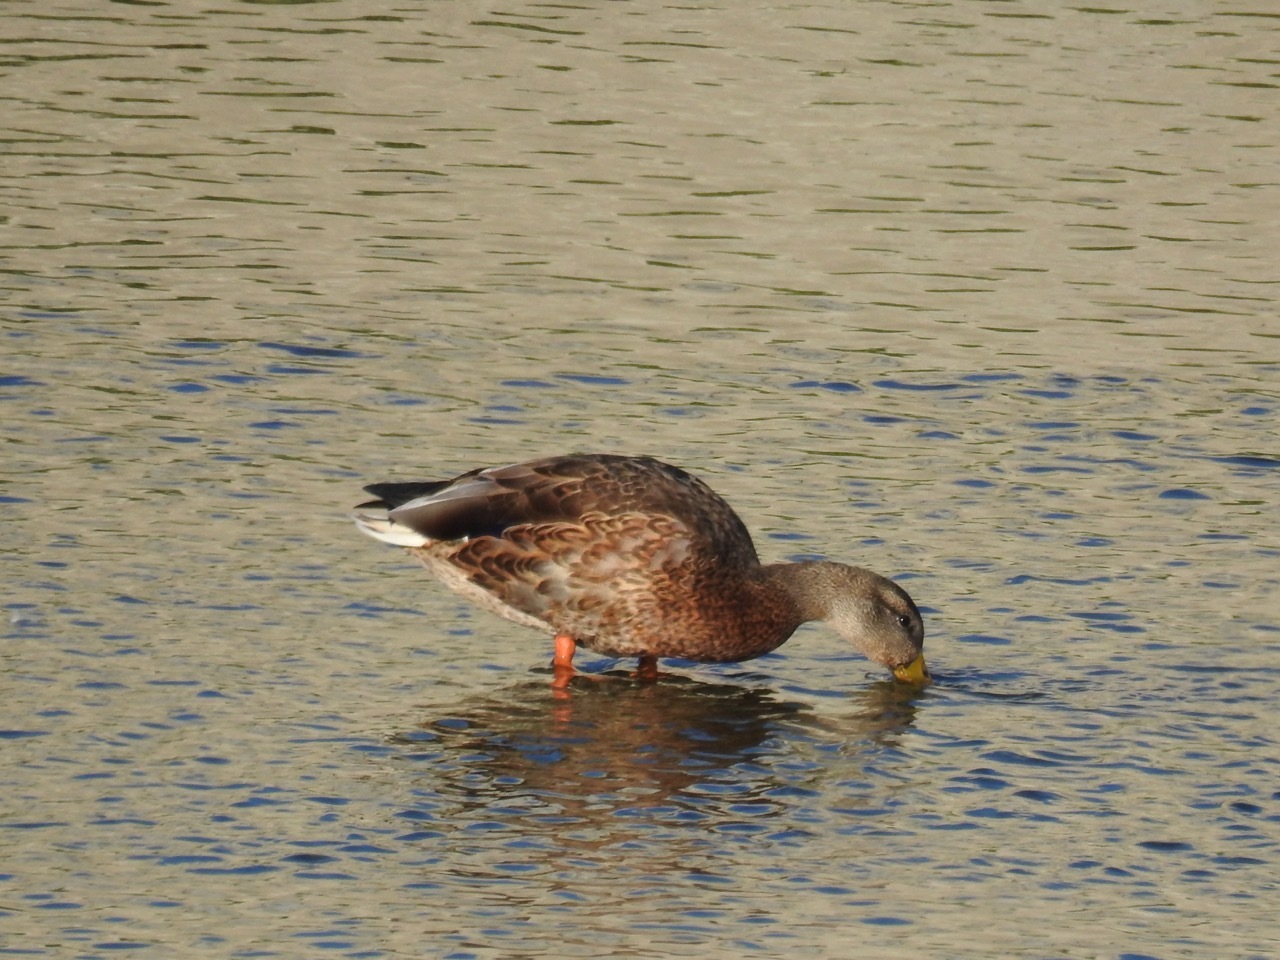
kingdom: Animalia
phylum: Chordata
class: Aves
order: Anseriformes
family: Anatidae
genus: Anas
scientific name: Anas platyrhynchos
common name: Mallard
